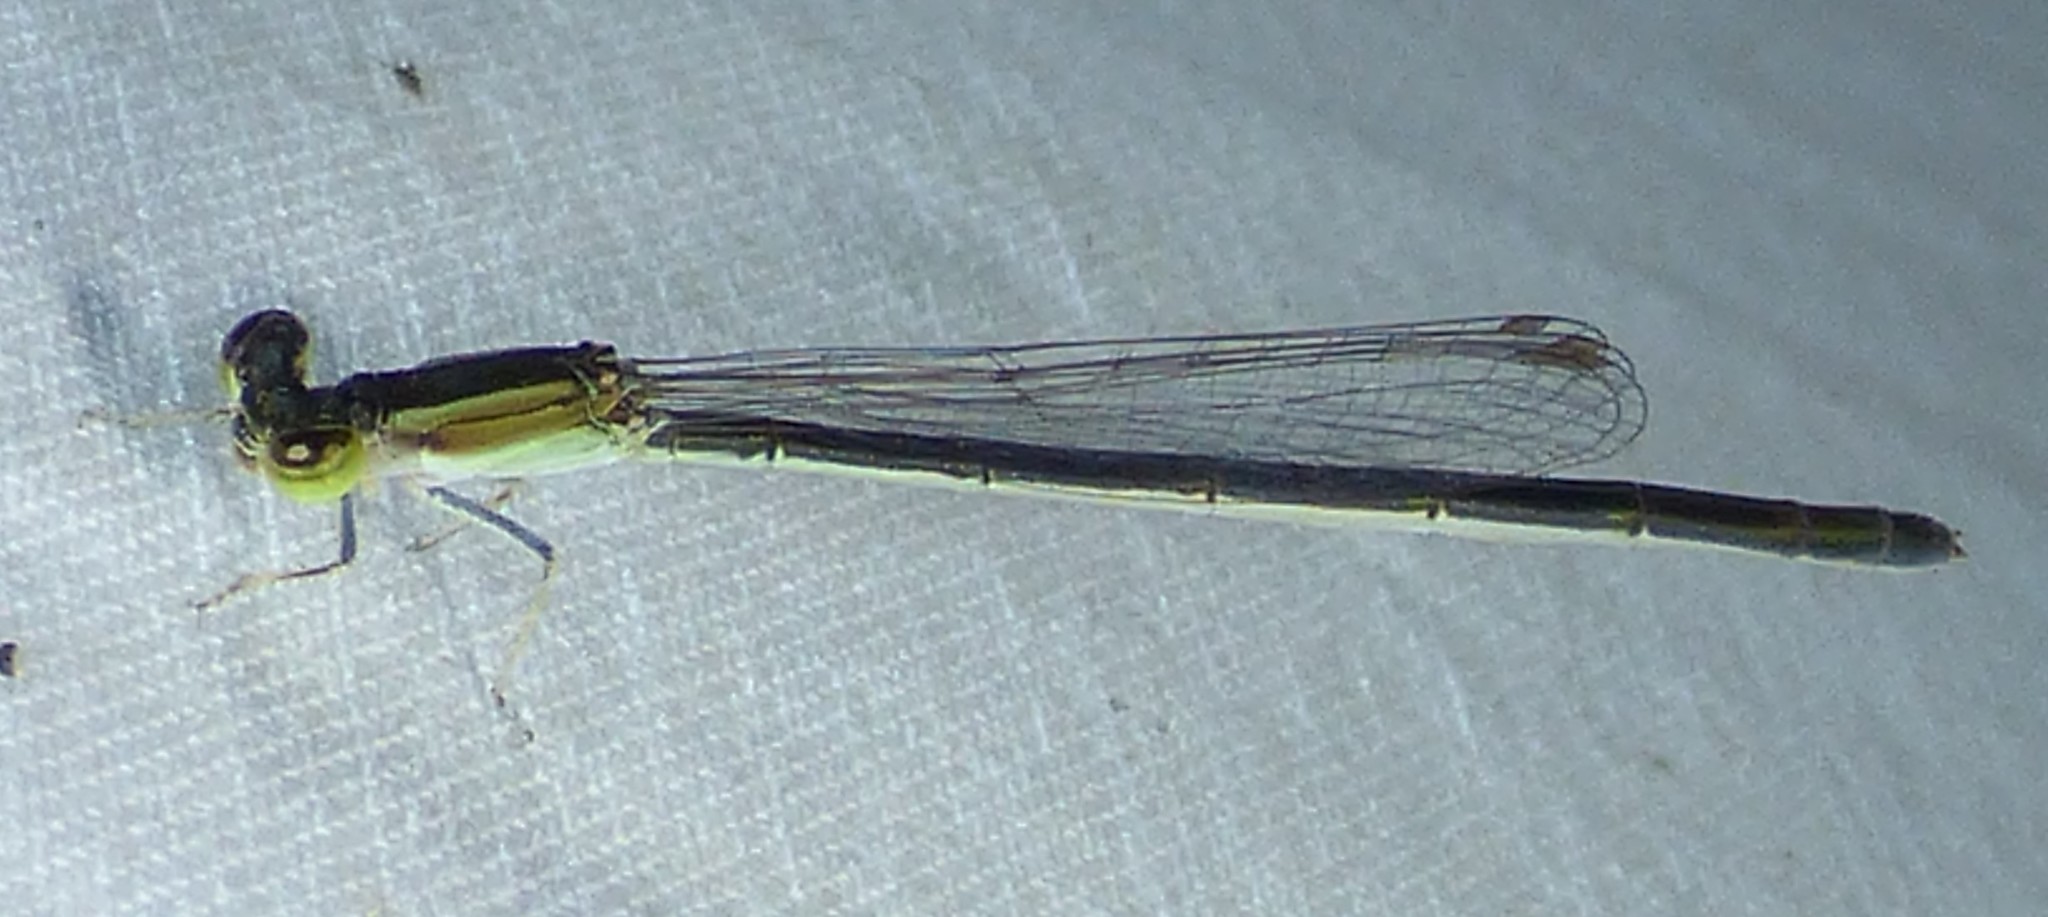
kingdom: Animalia
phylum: Arthropoda
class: Insecta
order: Odonata
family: Coenagrionidae
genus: Ischnura
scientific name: Ischnura hastata
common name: Citrine forktail
